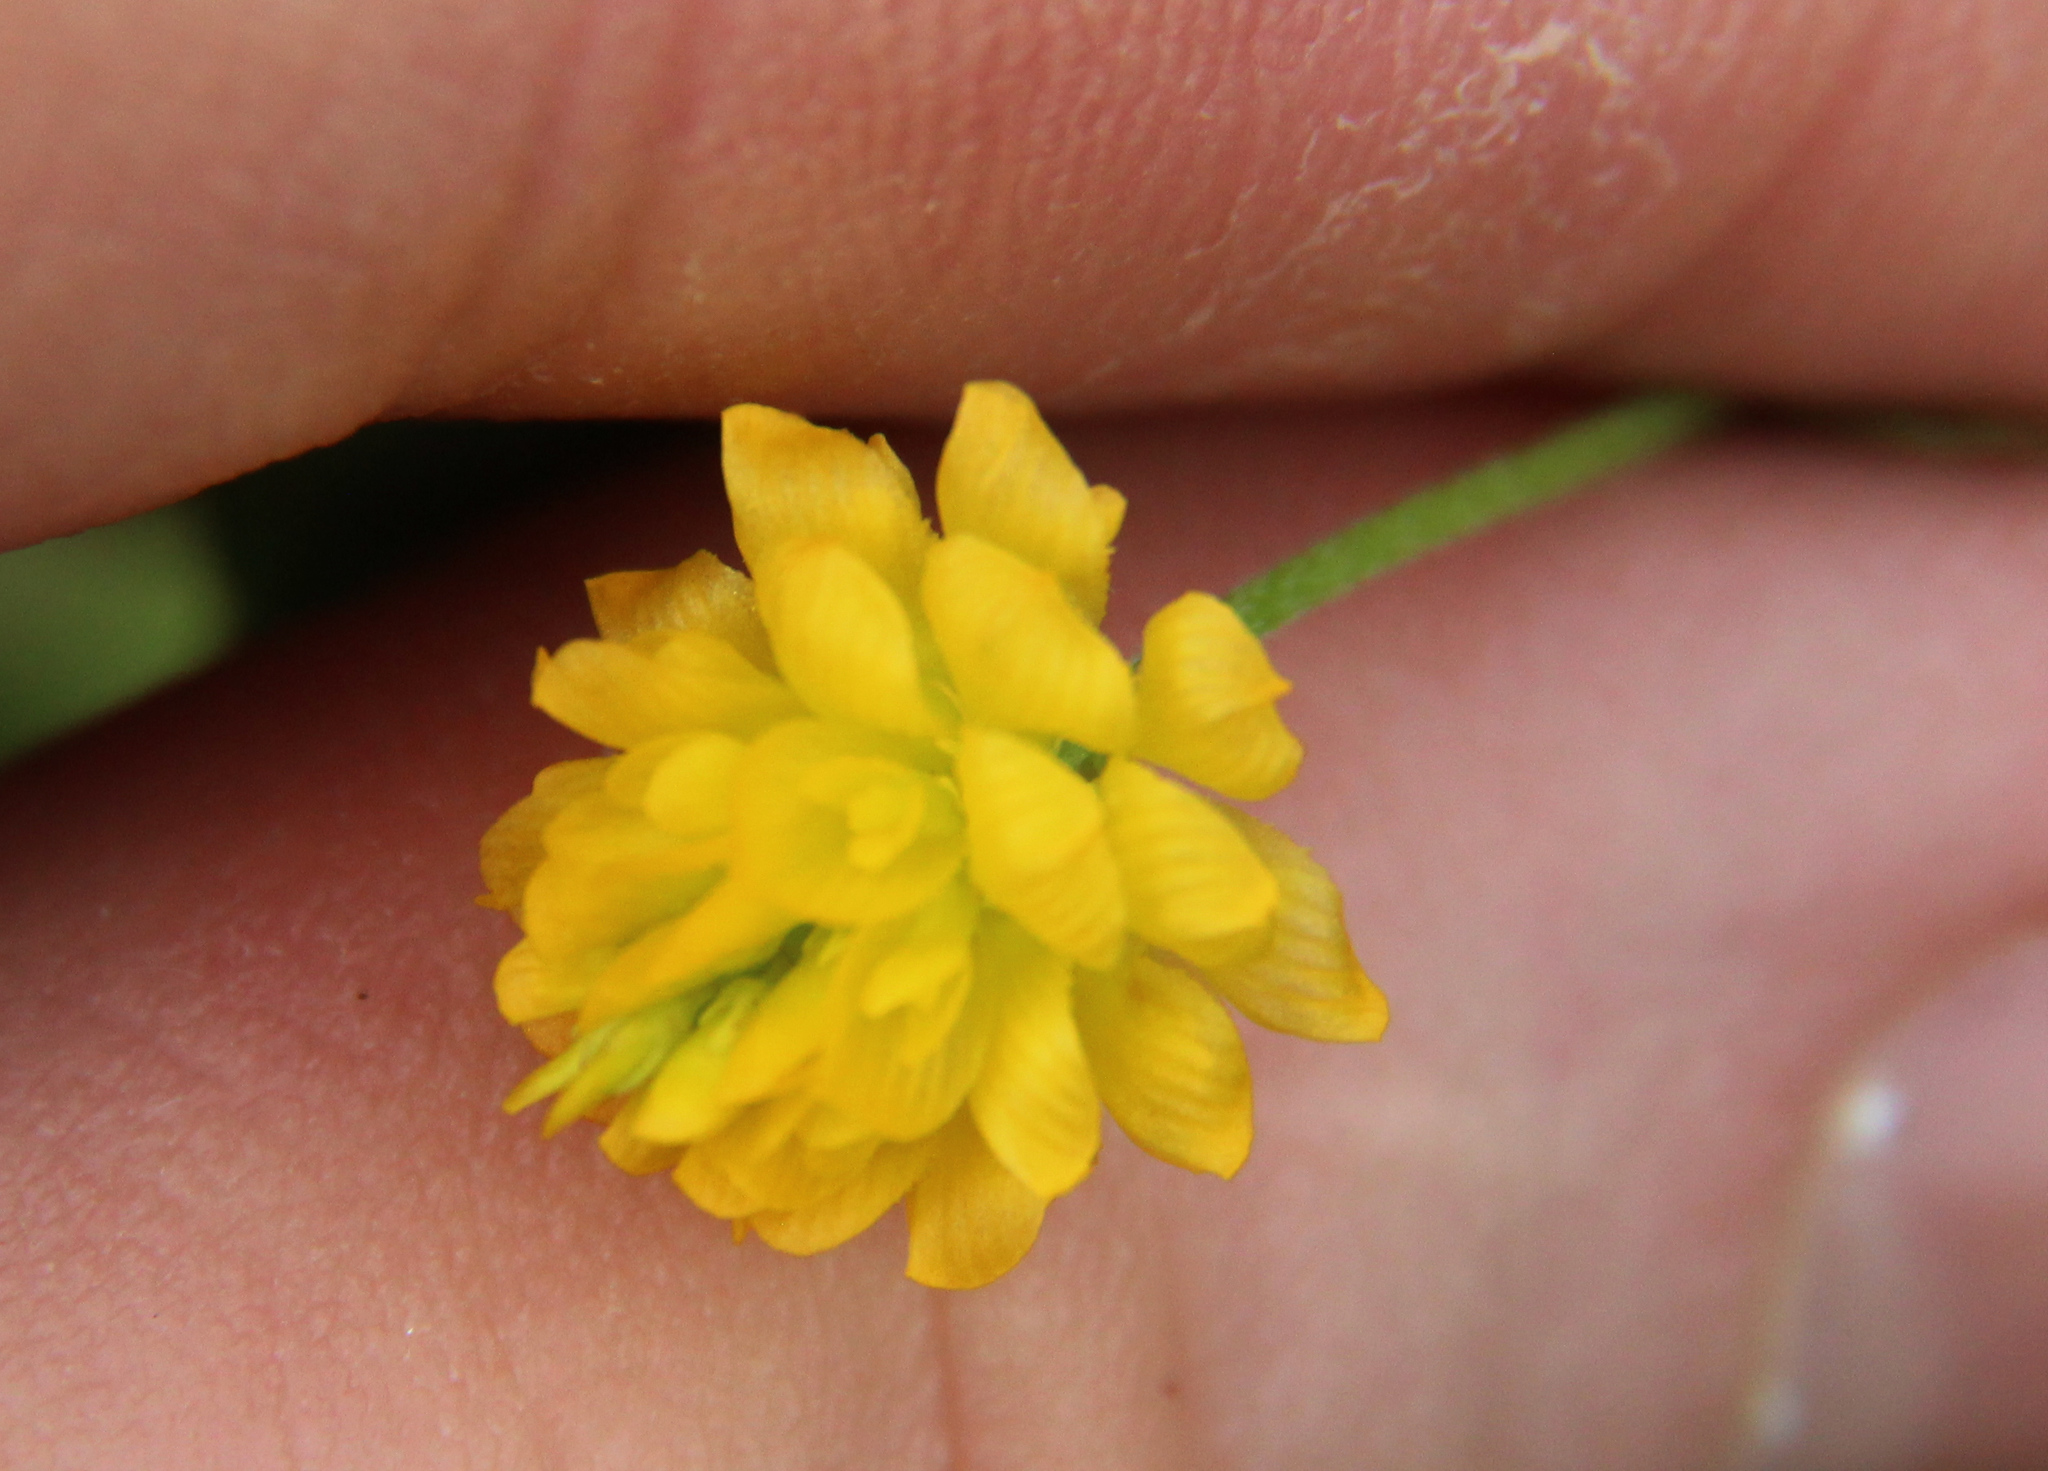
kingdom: Plantae
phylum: Tracheophyta
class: Magnoliopsida
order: Fabales
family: Fabaceae
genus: Trifolium
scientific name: Trifolium campestre
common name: Field clover
